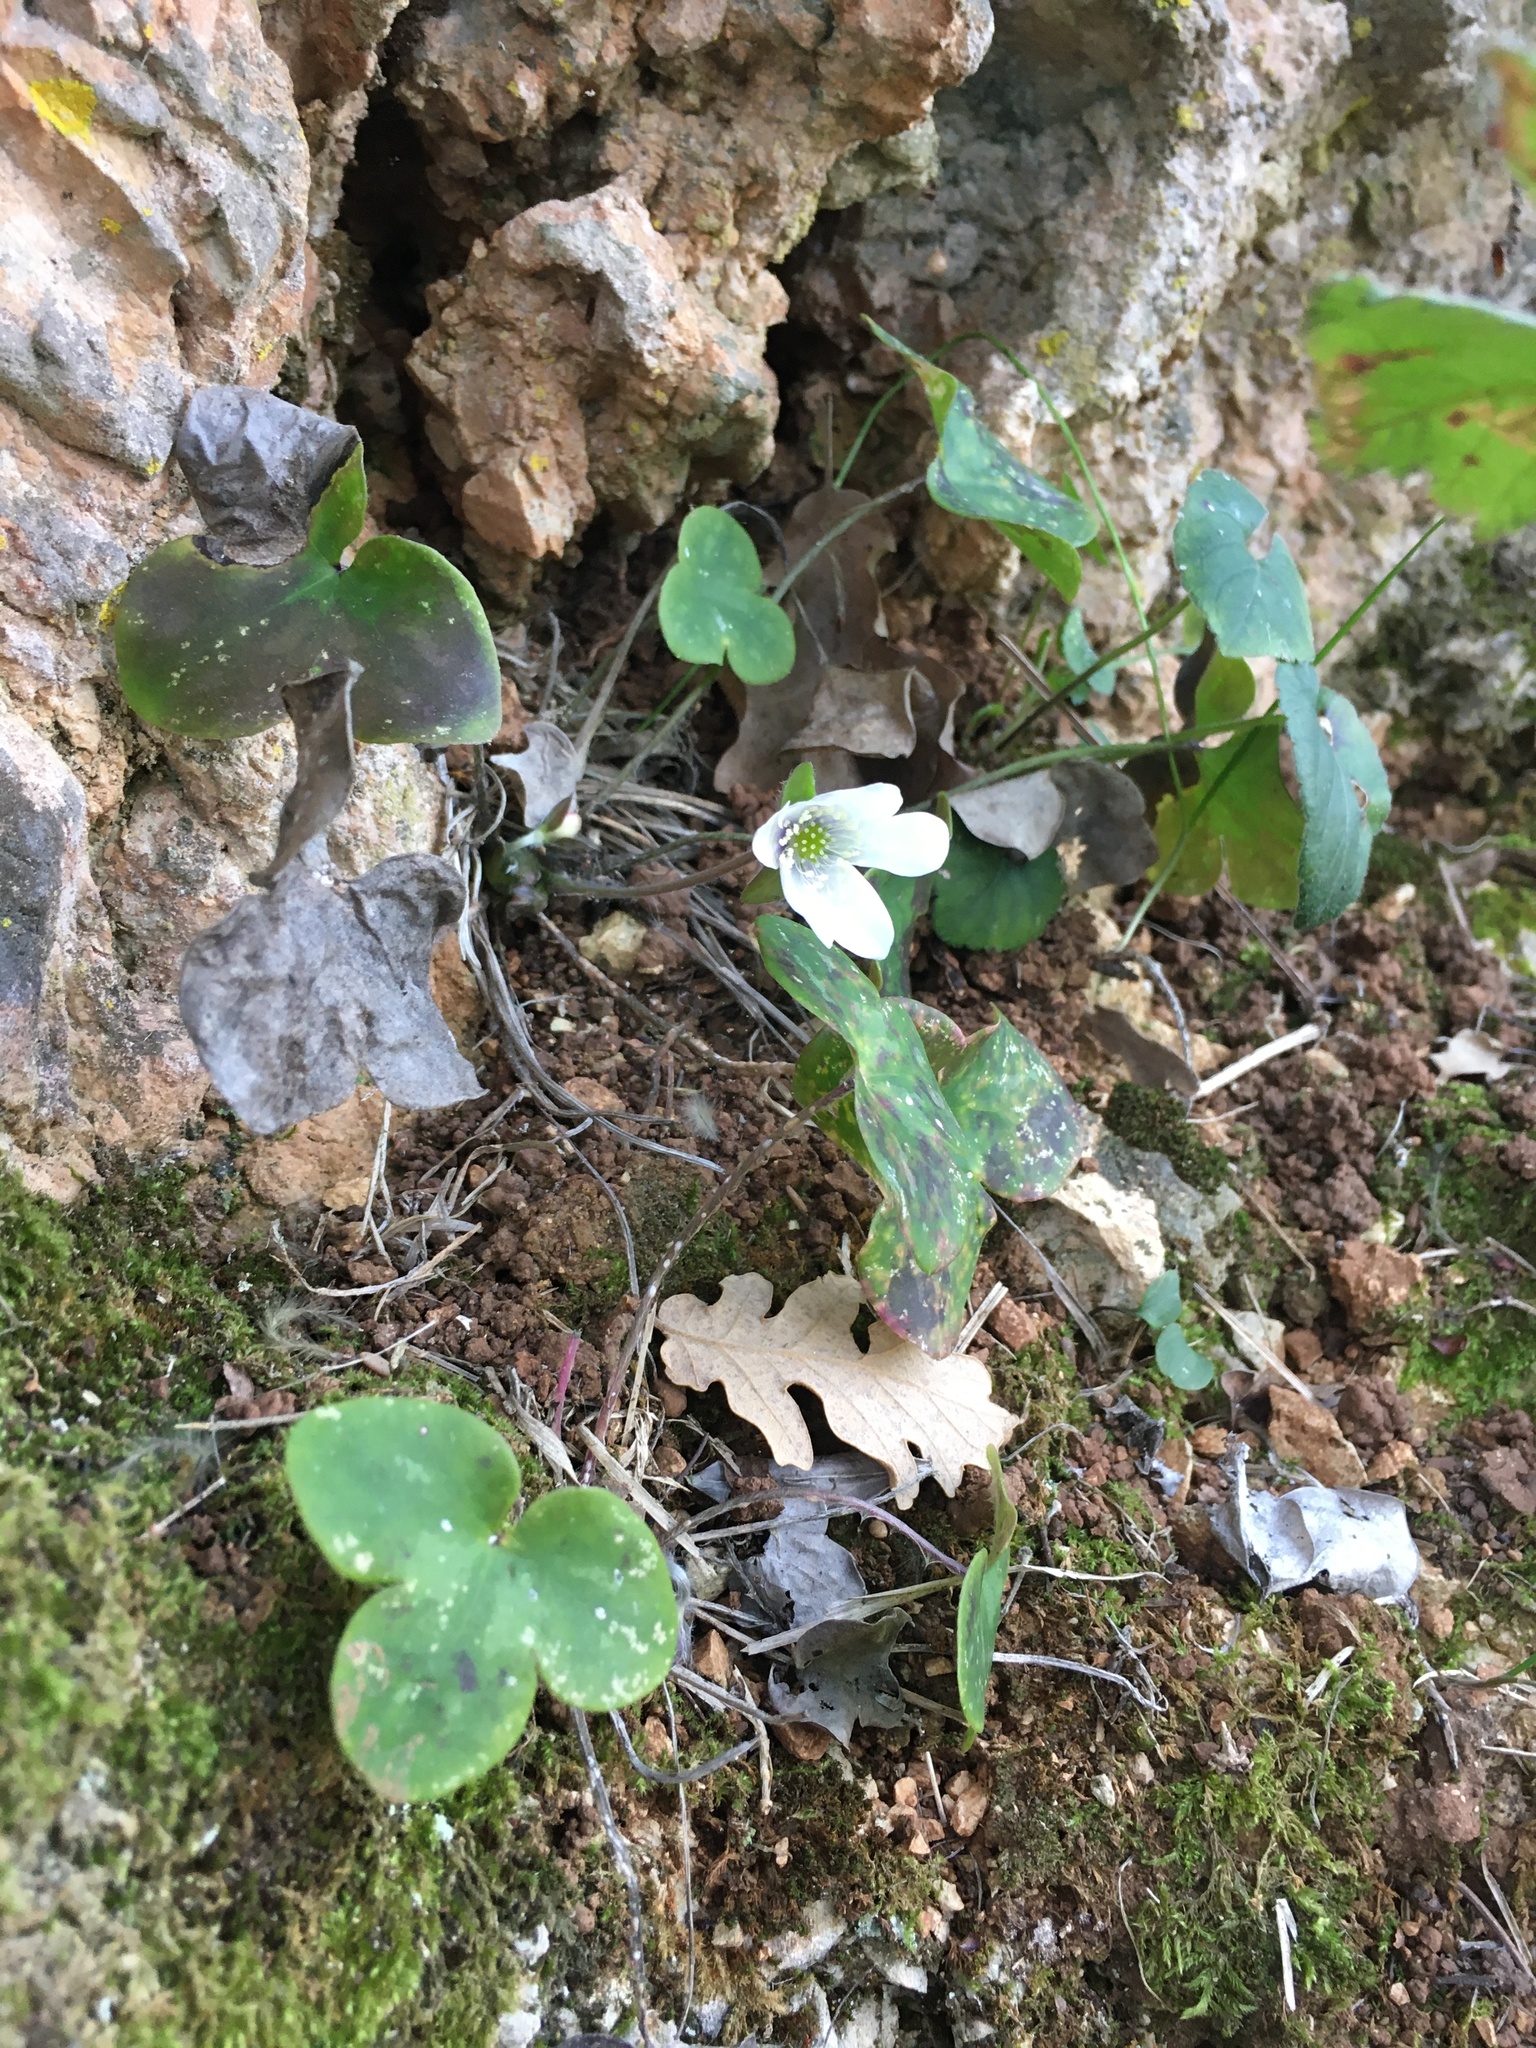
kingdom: Plantae
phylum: Tracheophyta
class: Magnoliopsida
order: Ranunculales
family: Ranunculaceae
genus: Hepatica
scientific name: Hepatica nobilis
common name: Liverleaf
